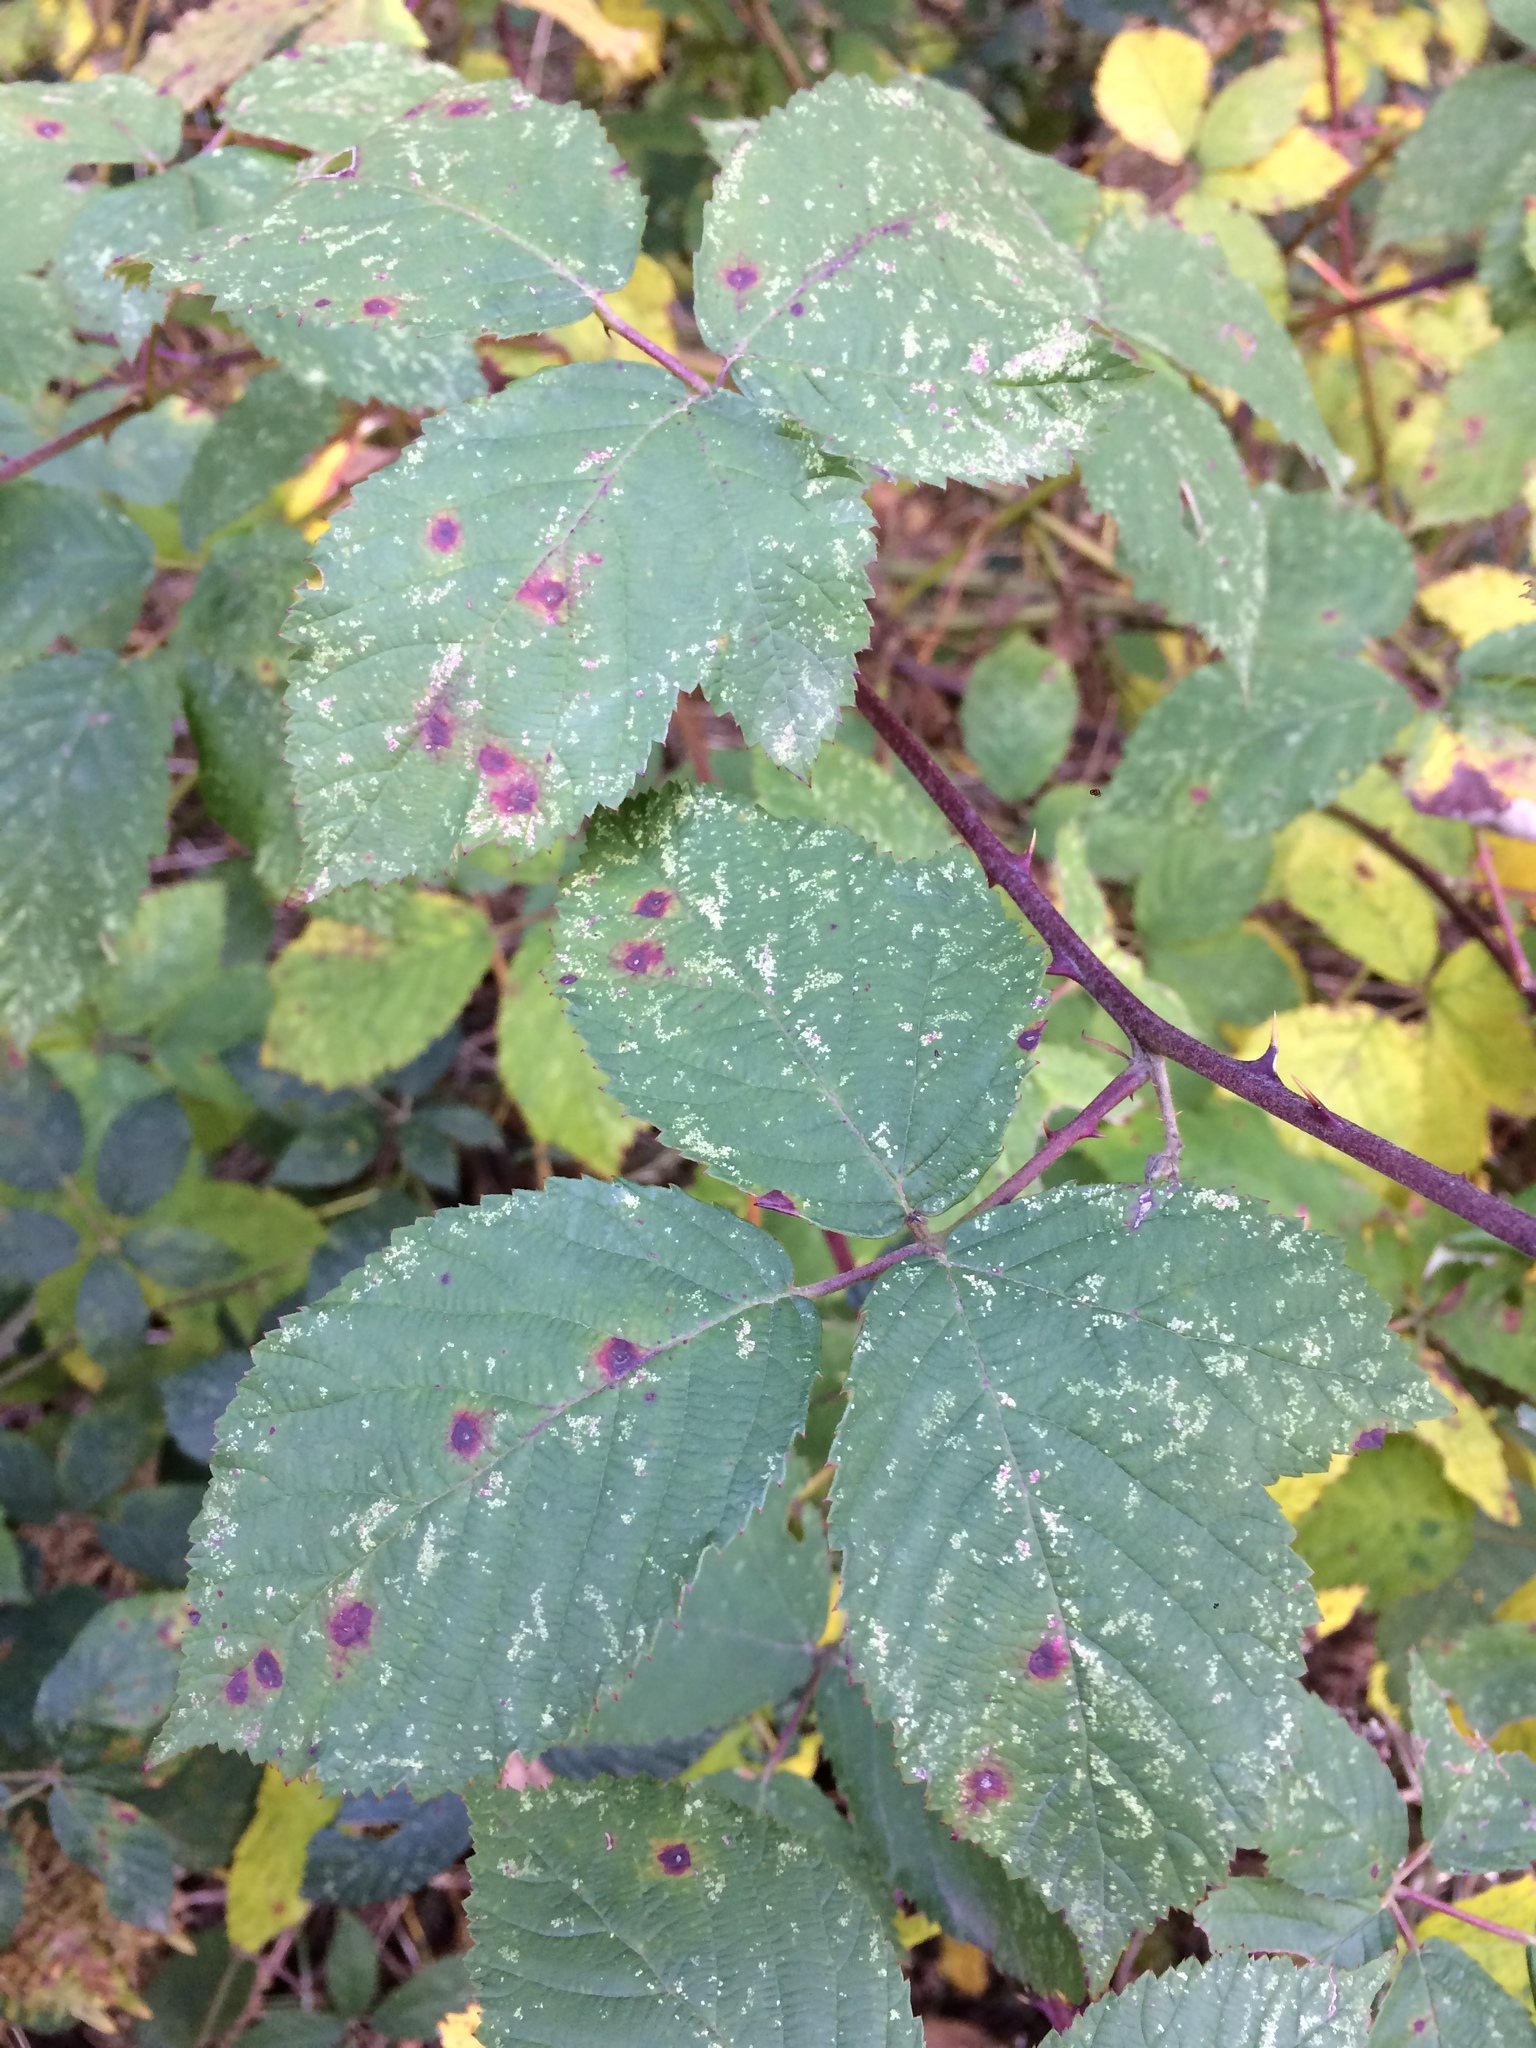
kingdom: Fungi
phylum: Basidiomycota
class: Pucciniomycetes
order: Pucciniales
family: Phragmidiaceae
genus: Phragmidium
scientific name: Phragmidium violaceum
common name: Violet bramble rust
